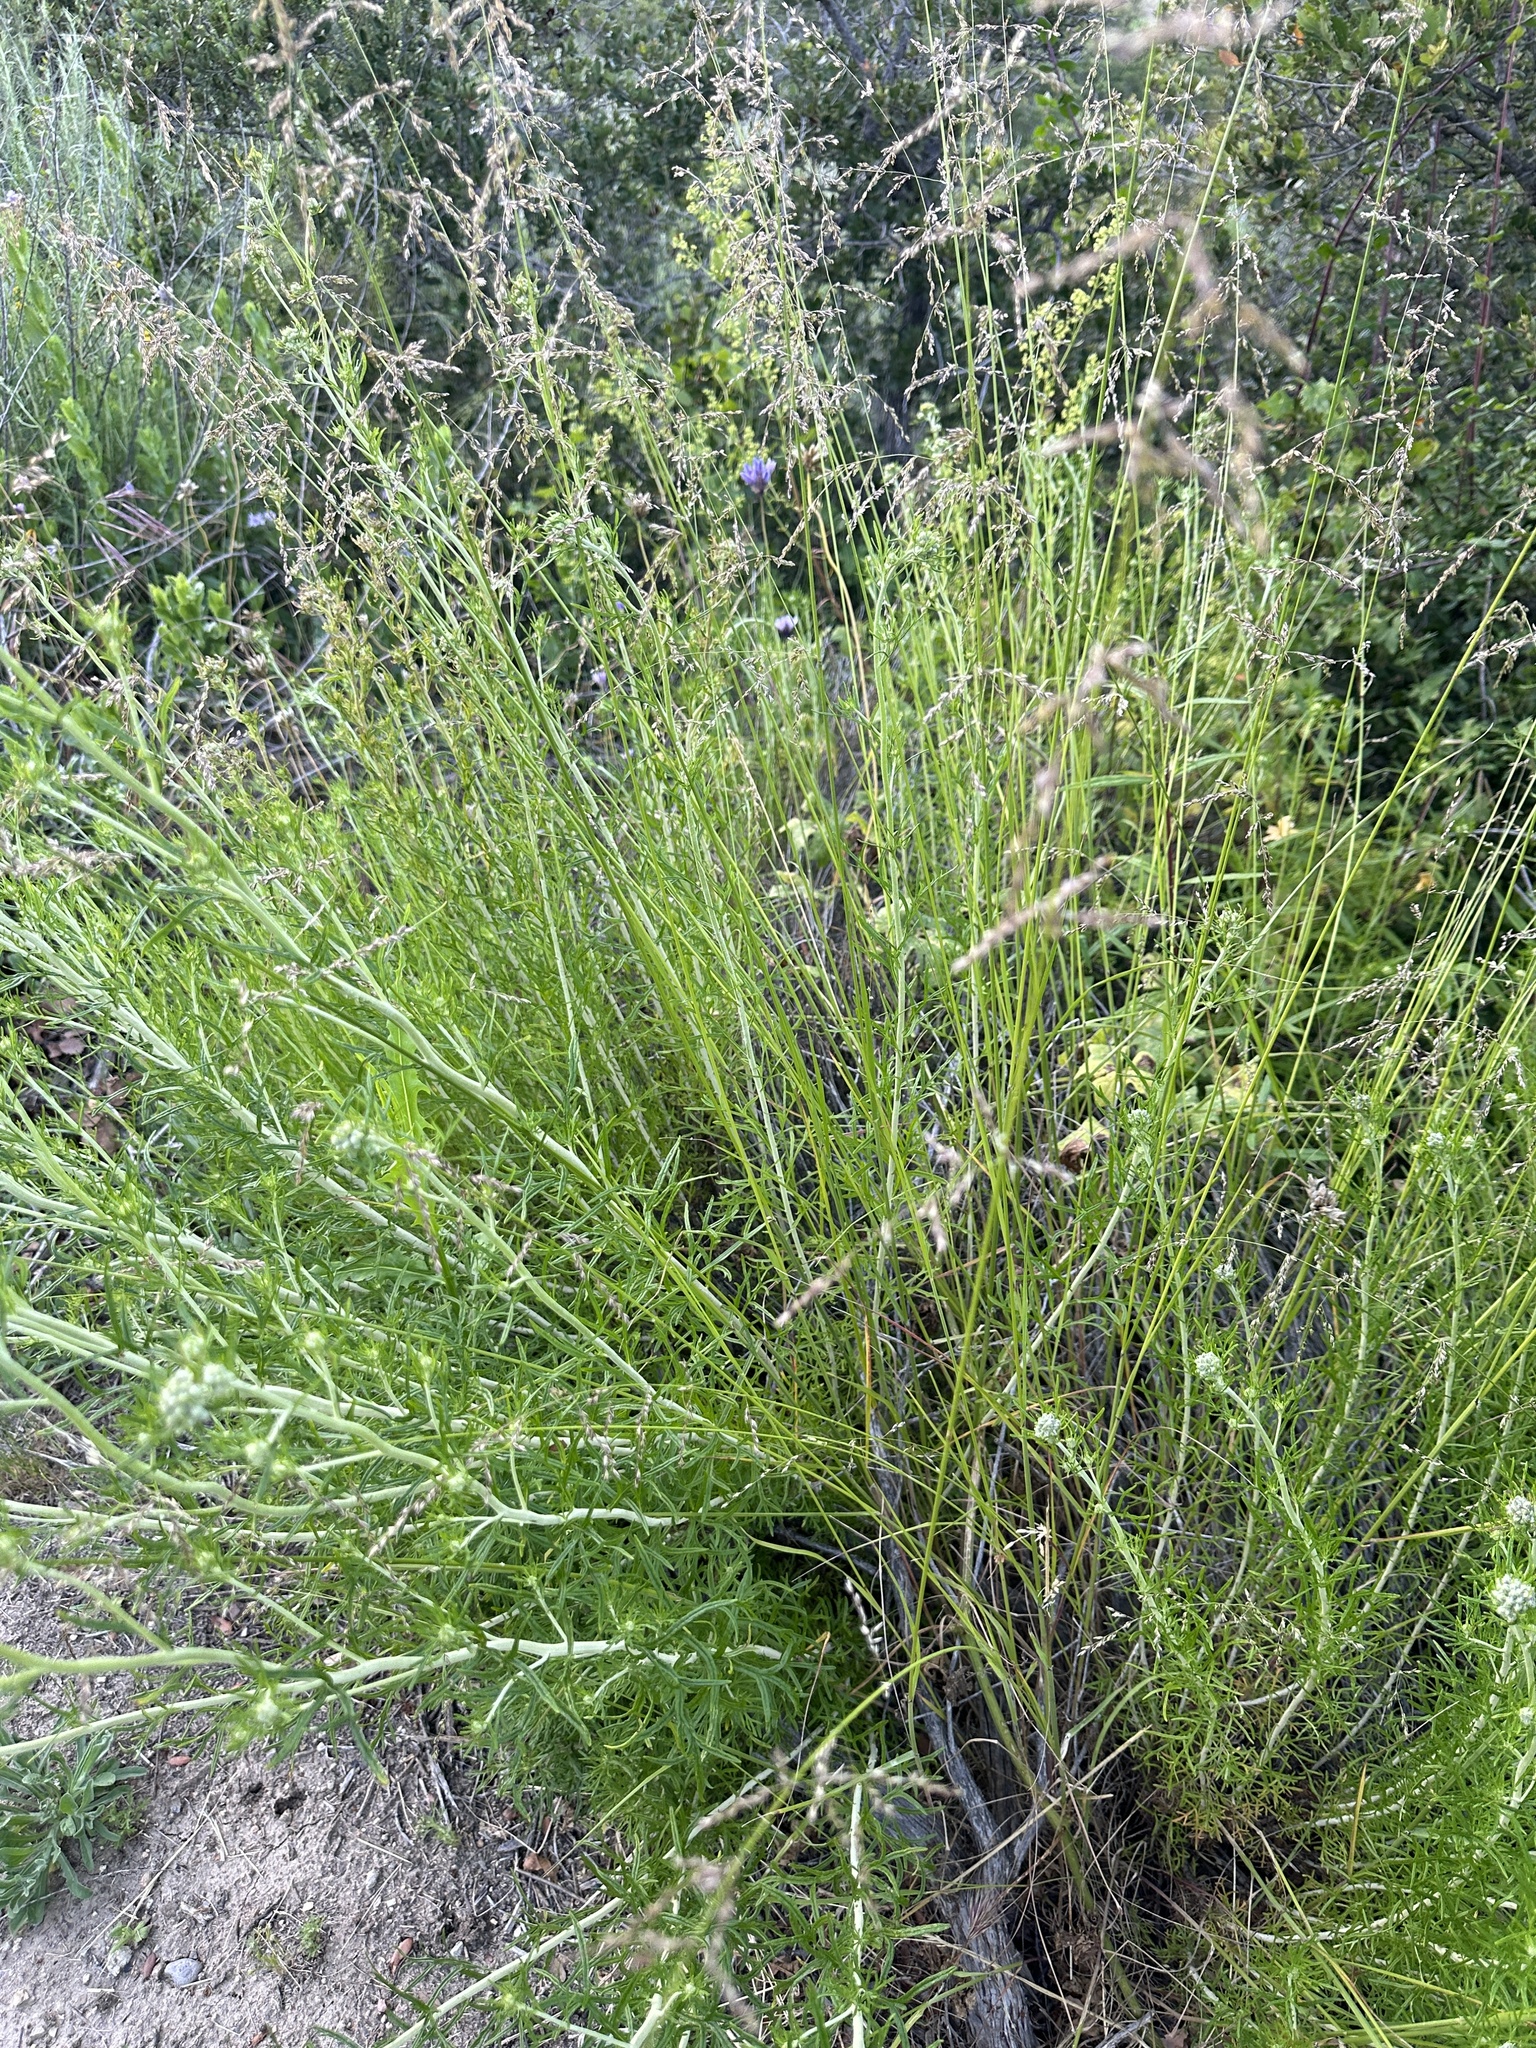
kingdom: Plantae
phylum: Tracheophyta
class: Liliopsida
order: Poales
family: Poaceae
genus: Melica
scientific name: Melica imperfecta
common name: California melic
